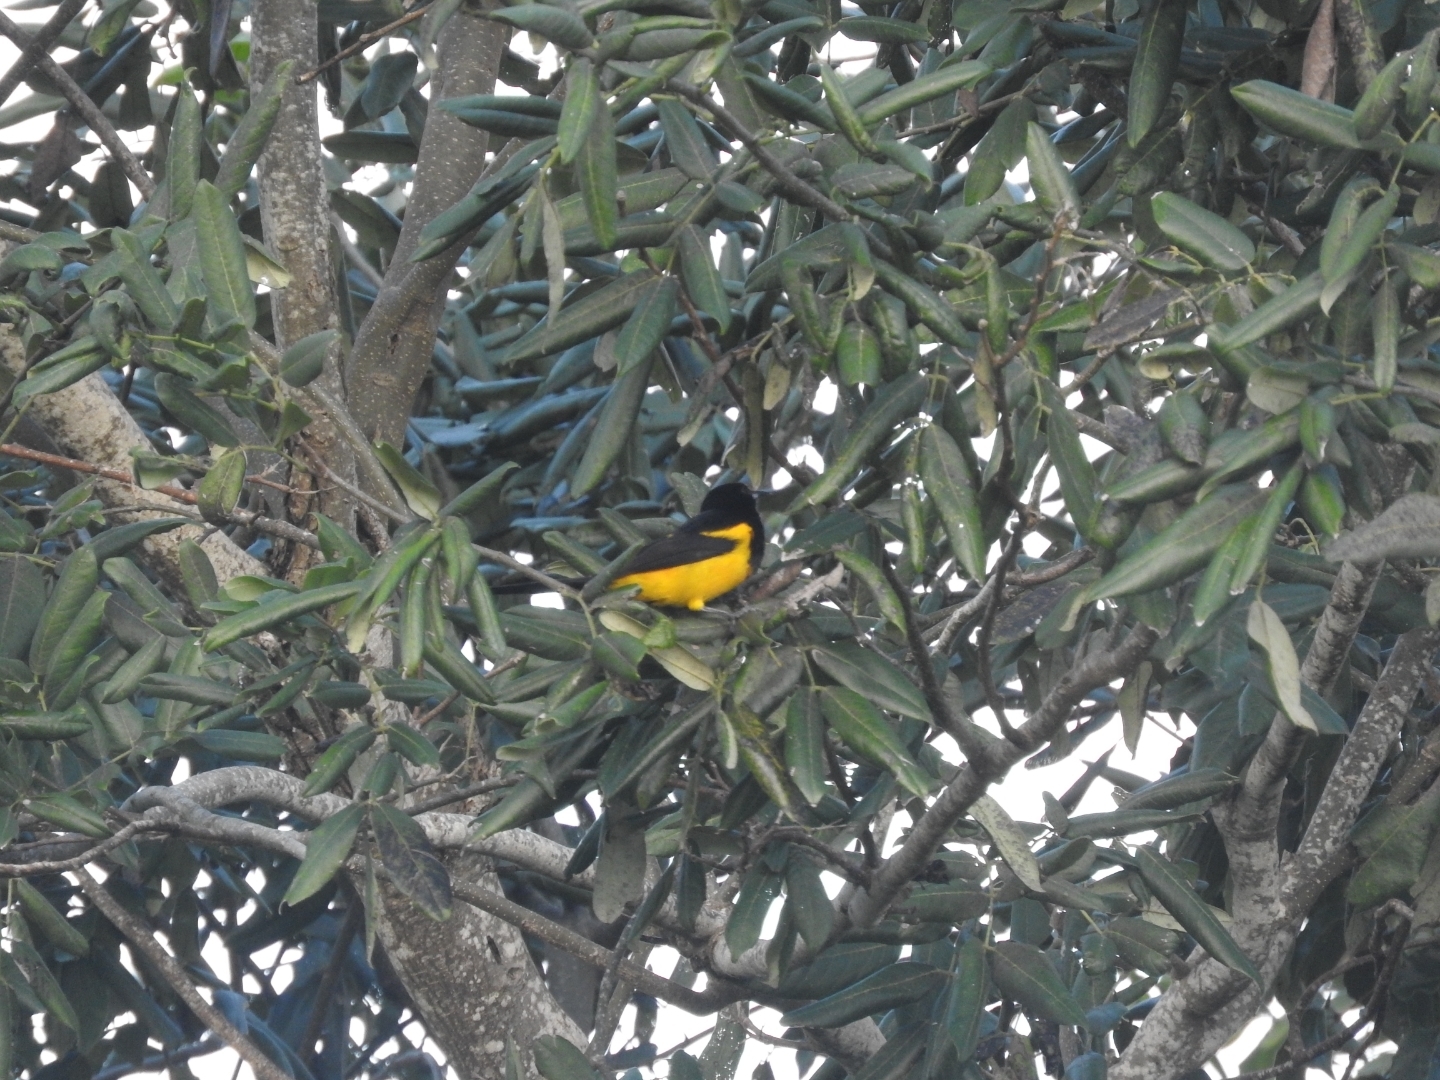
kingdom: Animalia
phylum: Chordata
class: Aves
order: Passeriformes
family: Icteridae
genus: Icterus
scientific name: Icterus prosthemelas
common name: Black-cowled oriole
